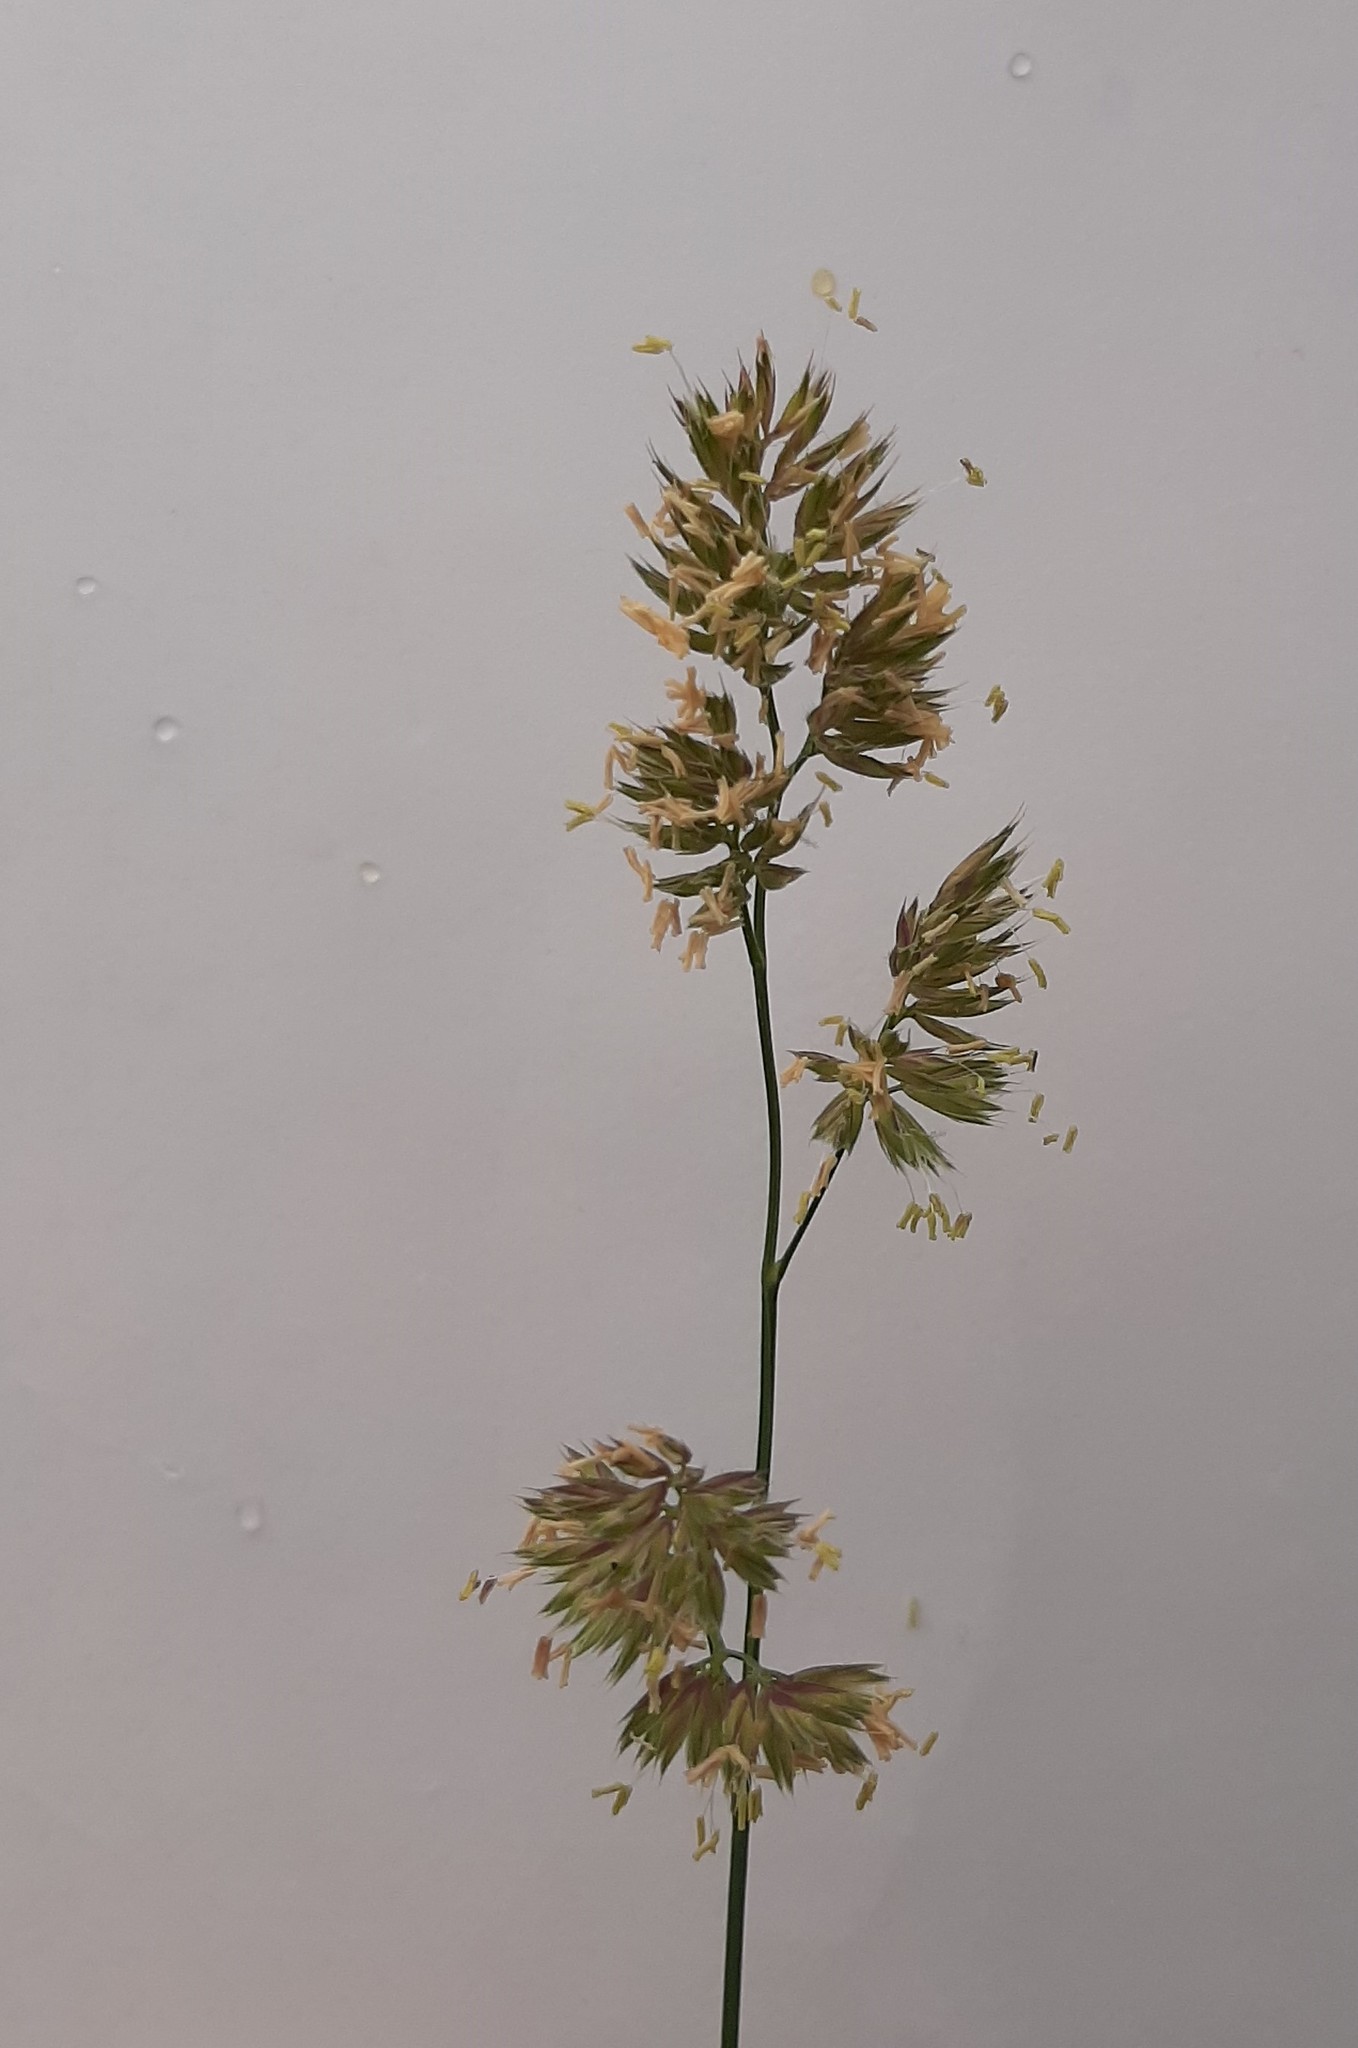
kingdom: Plantae
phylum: Tracheophyta
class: Liliopsida
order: Poales
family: Poaceae
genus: Dactylis
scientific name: Dactylis glomerata
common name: Orchardgrass
